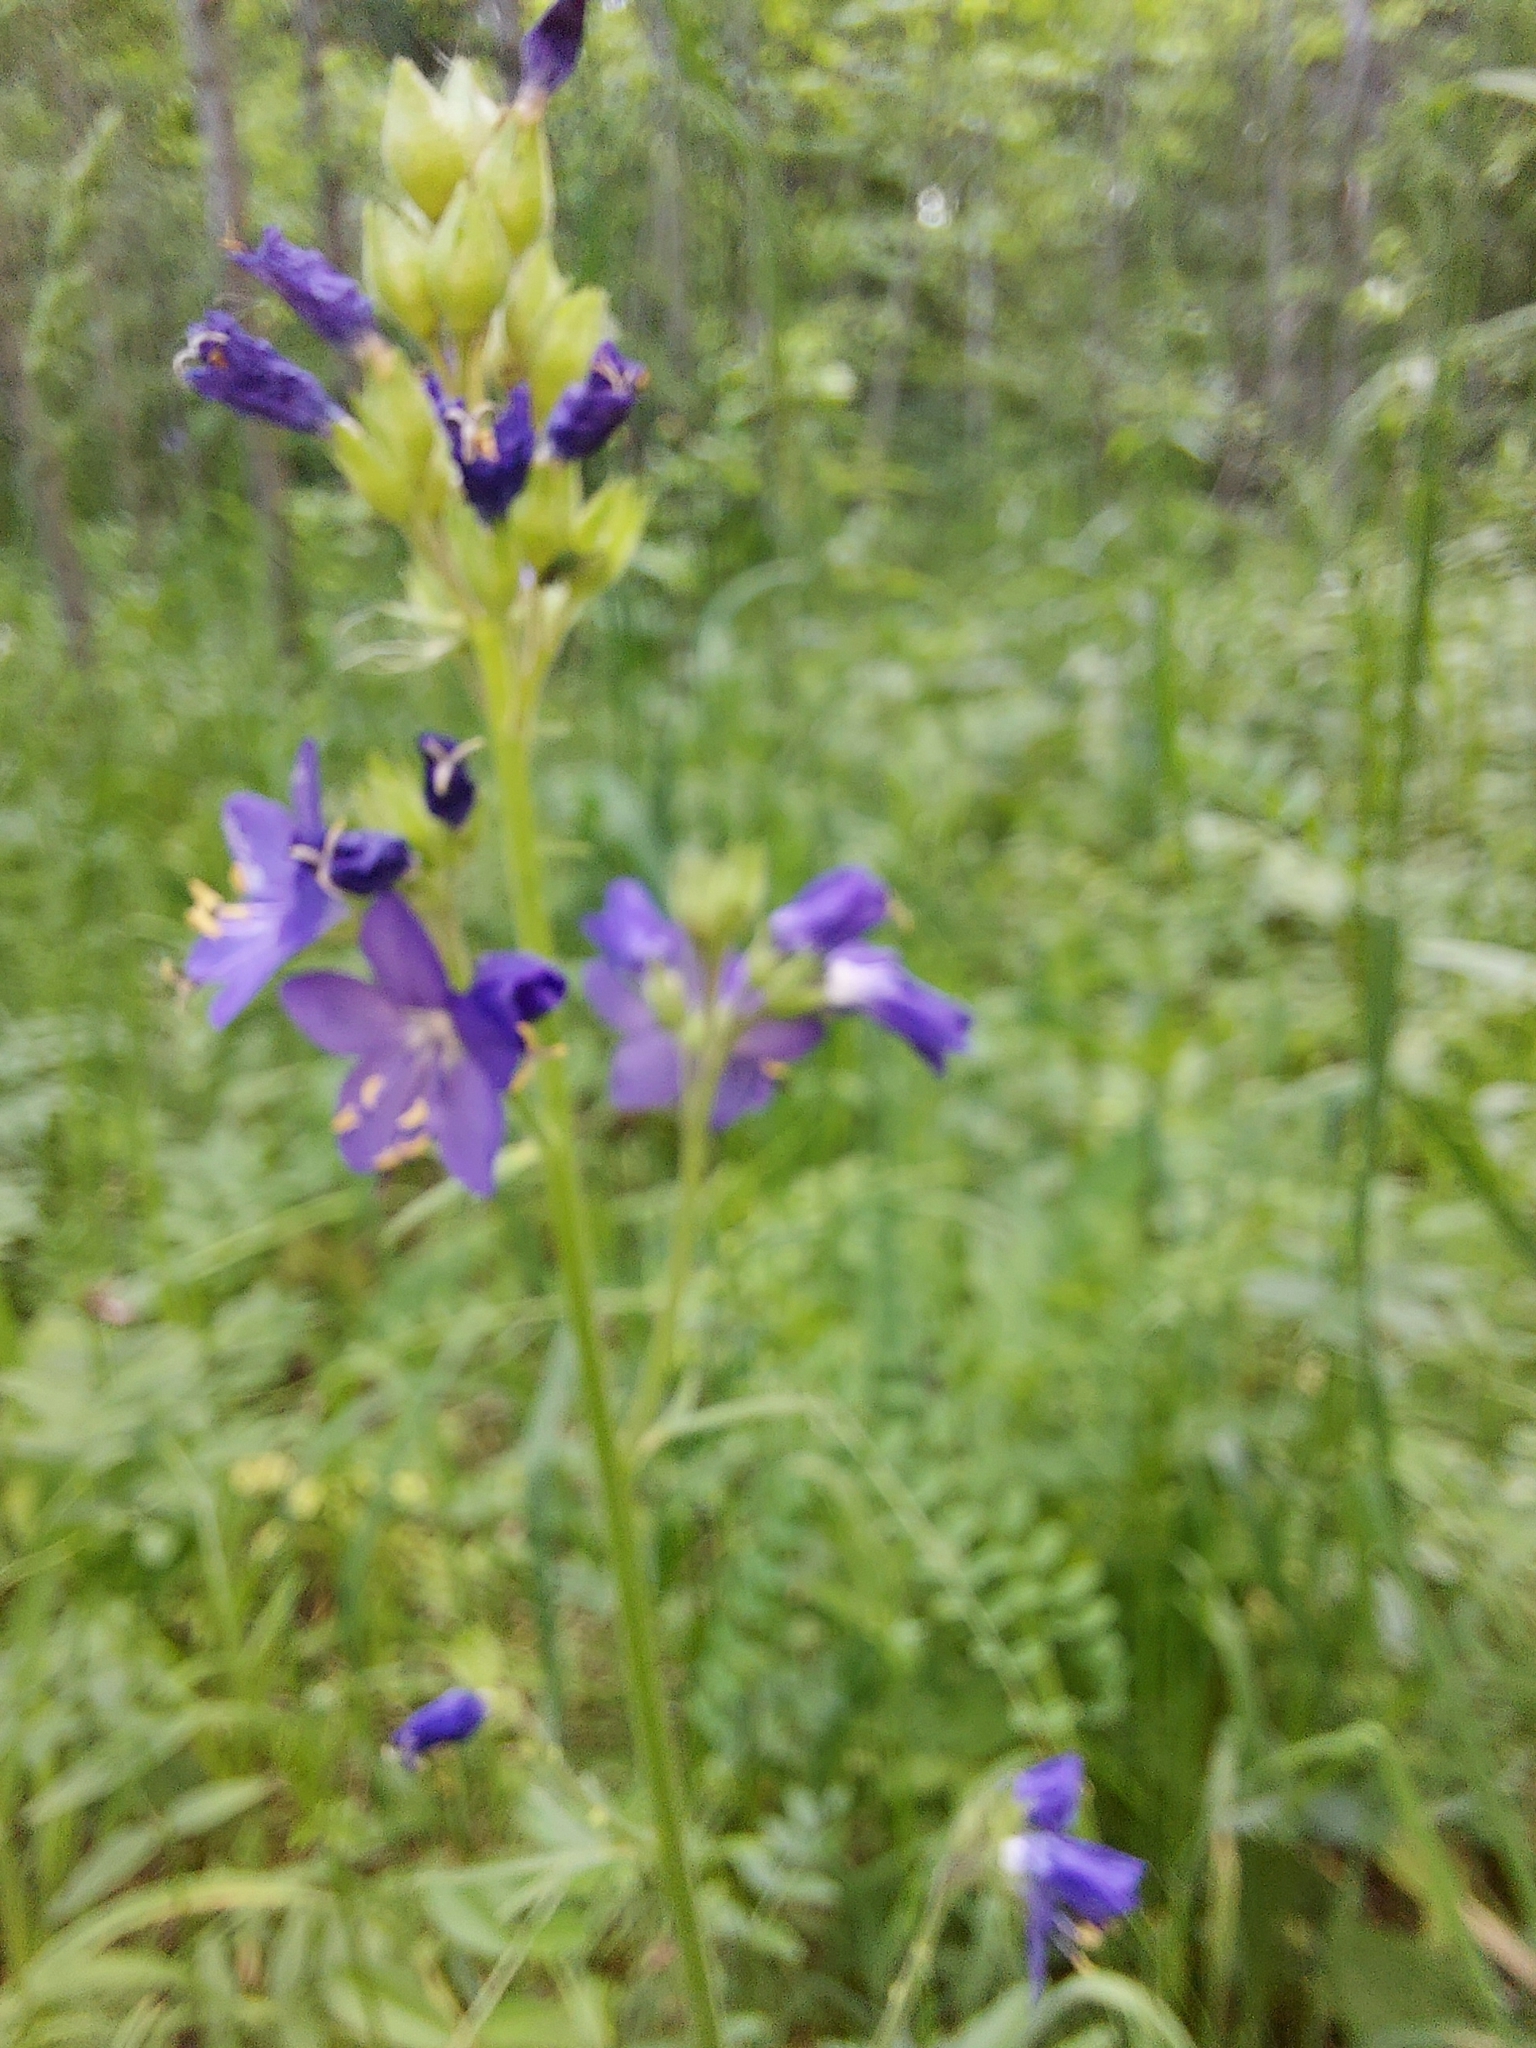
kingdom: Plantae
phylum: Tracheophyta
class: Magnoliopsida
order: Ericales
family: Polemoniaceae
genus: Polemonium
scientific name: Polemonium caeruleum
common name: Jacob's-ladder
